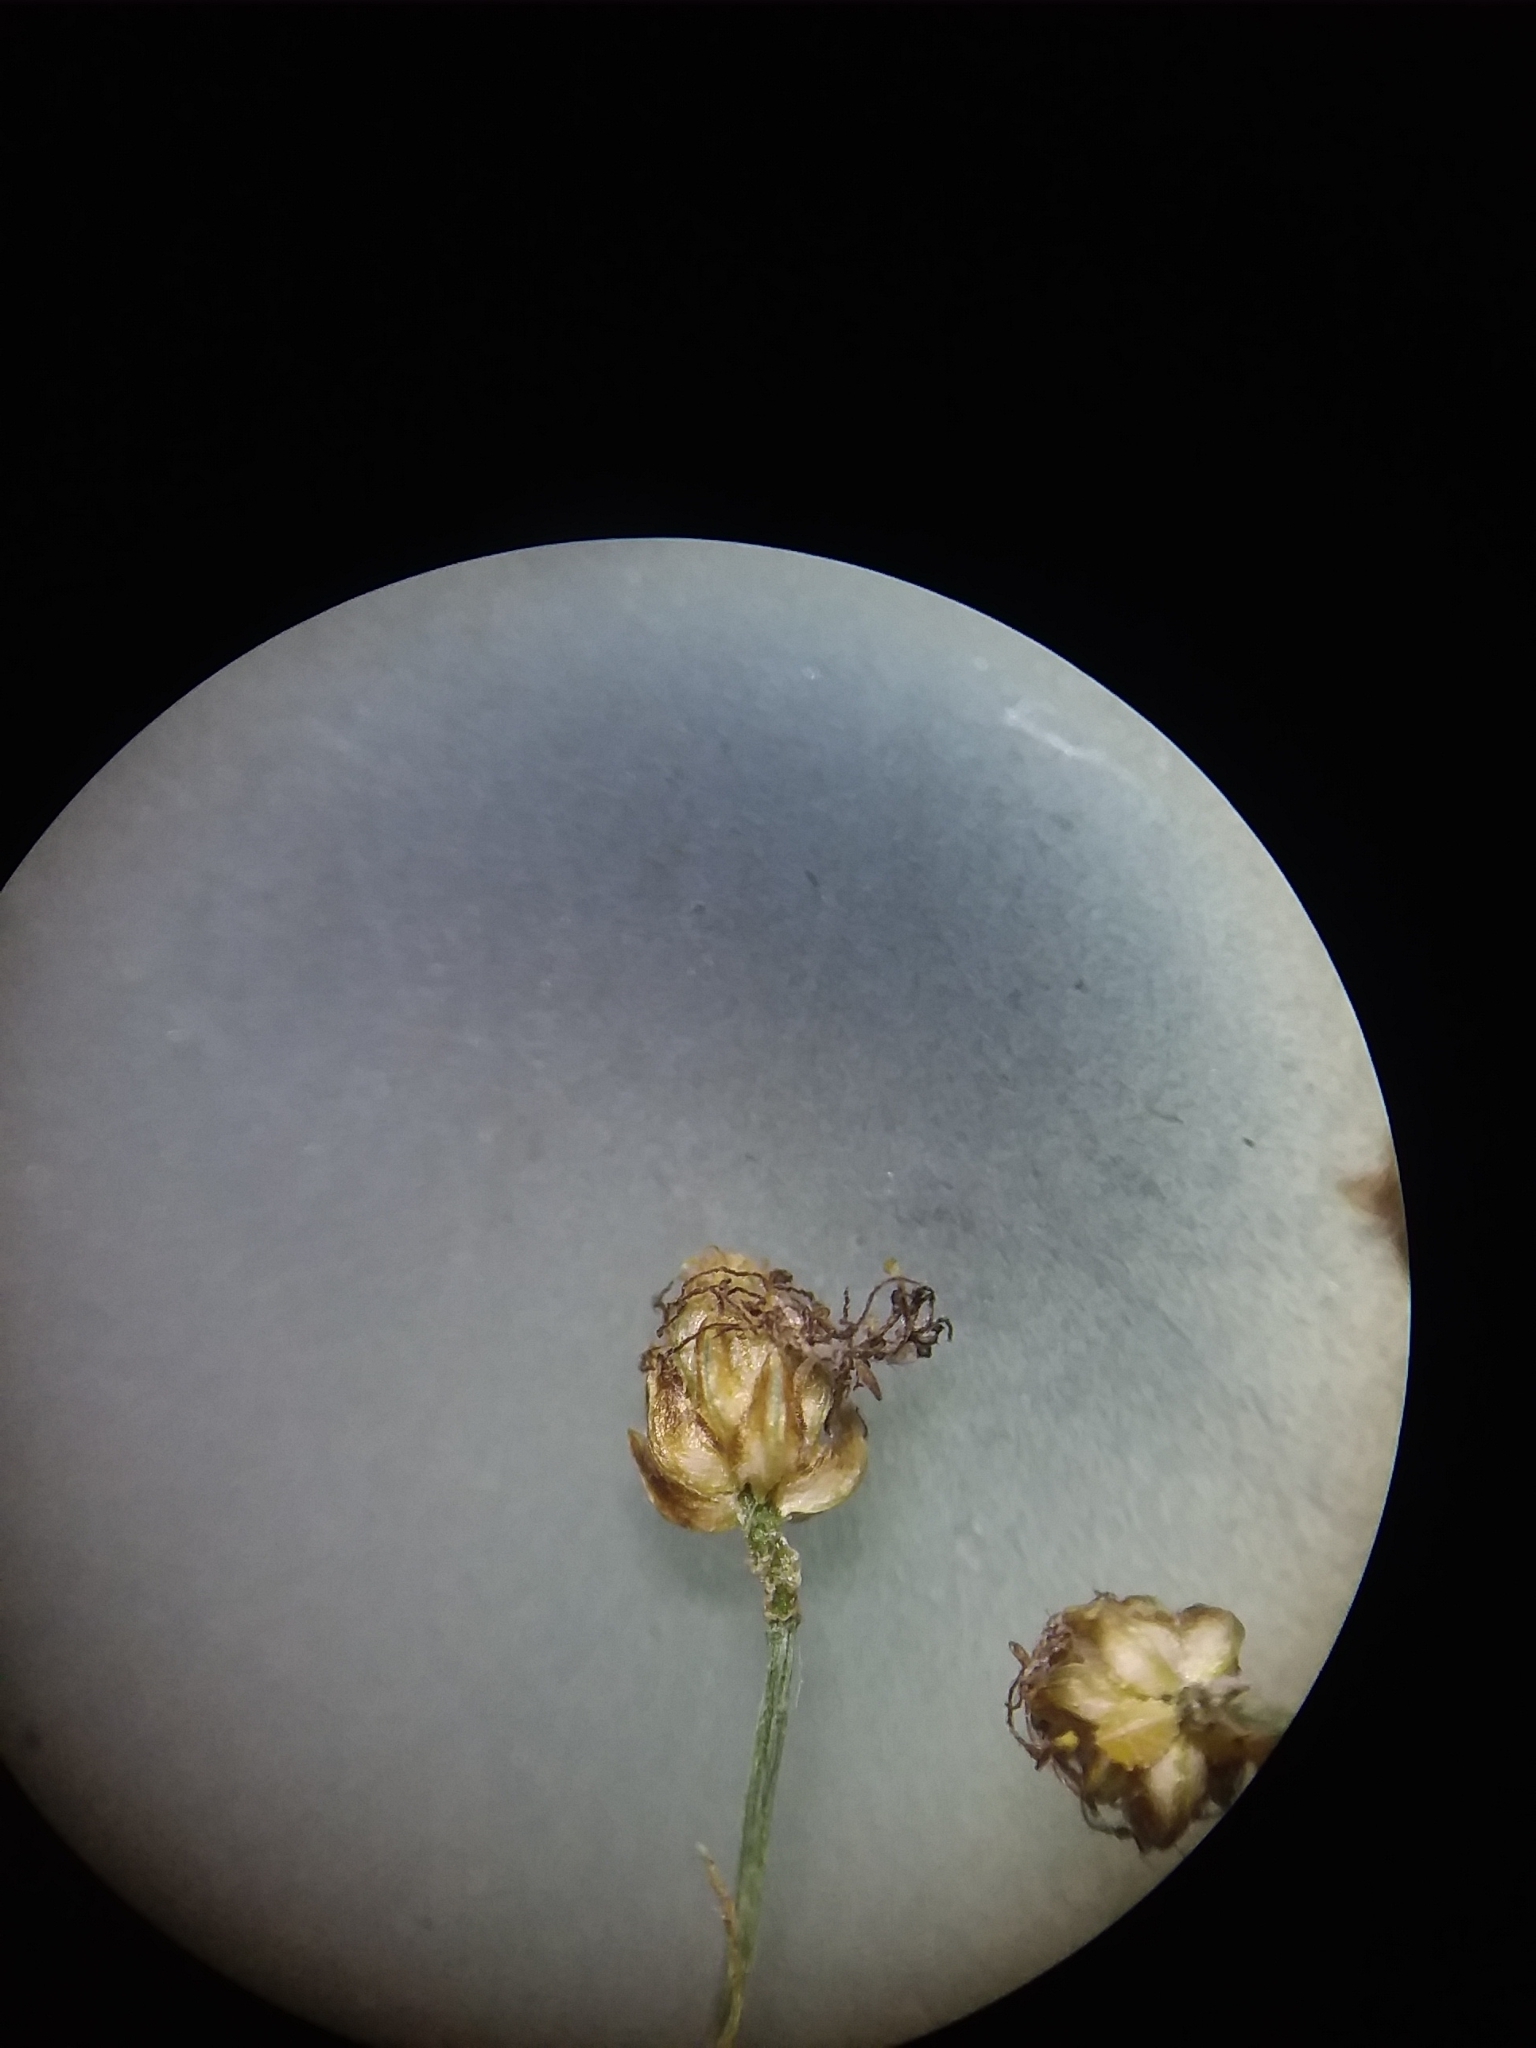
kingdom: Plantae
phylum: Tracheophyta
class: Liliopsida
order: Poales
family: Cyperaceae
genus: Fimbristylis
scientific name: Fimbristylis littoralis
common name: Fimbry
